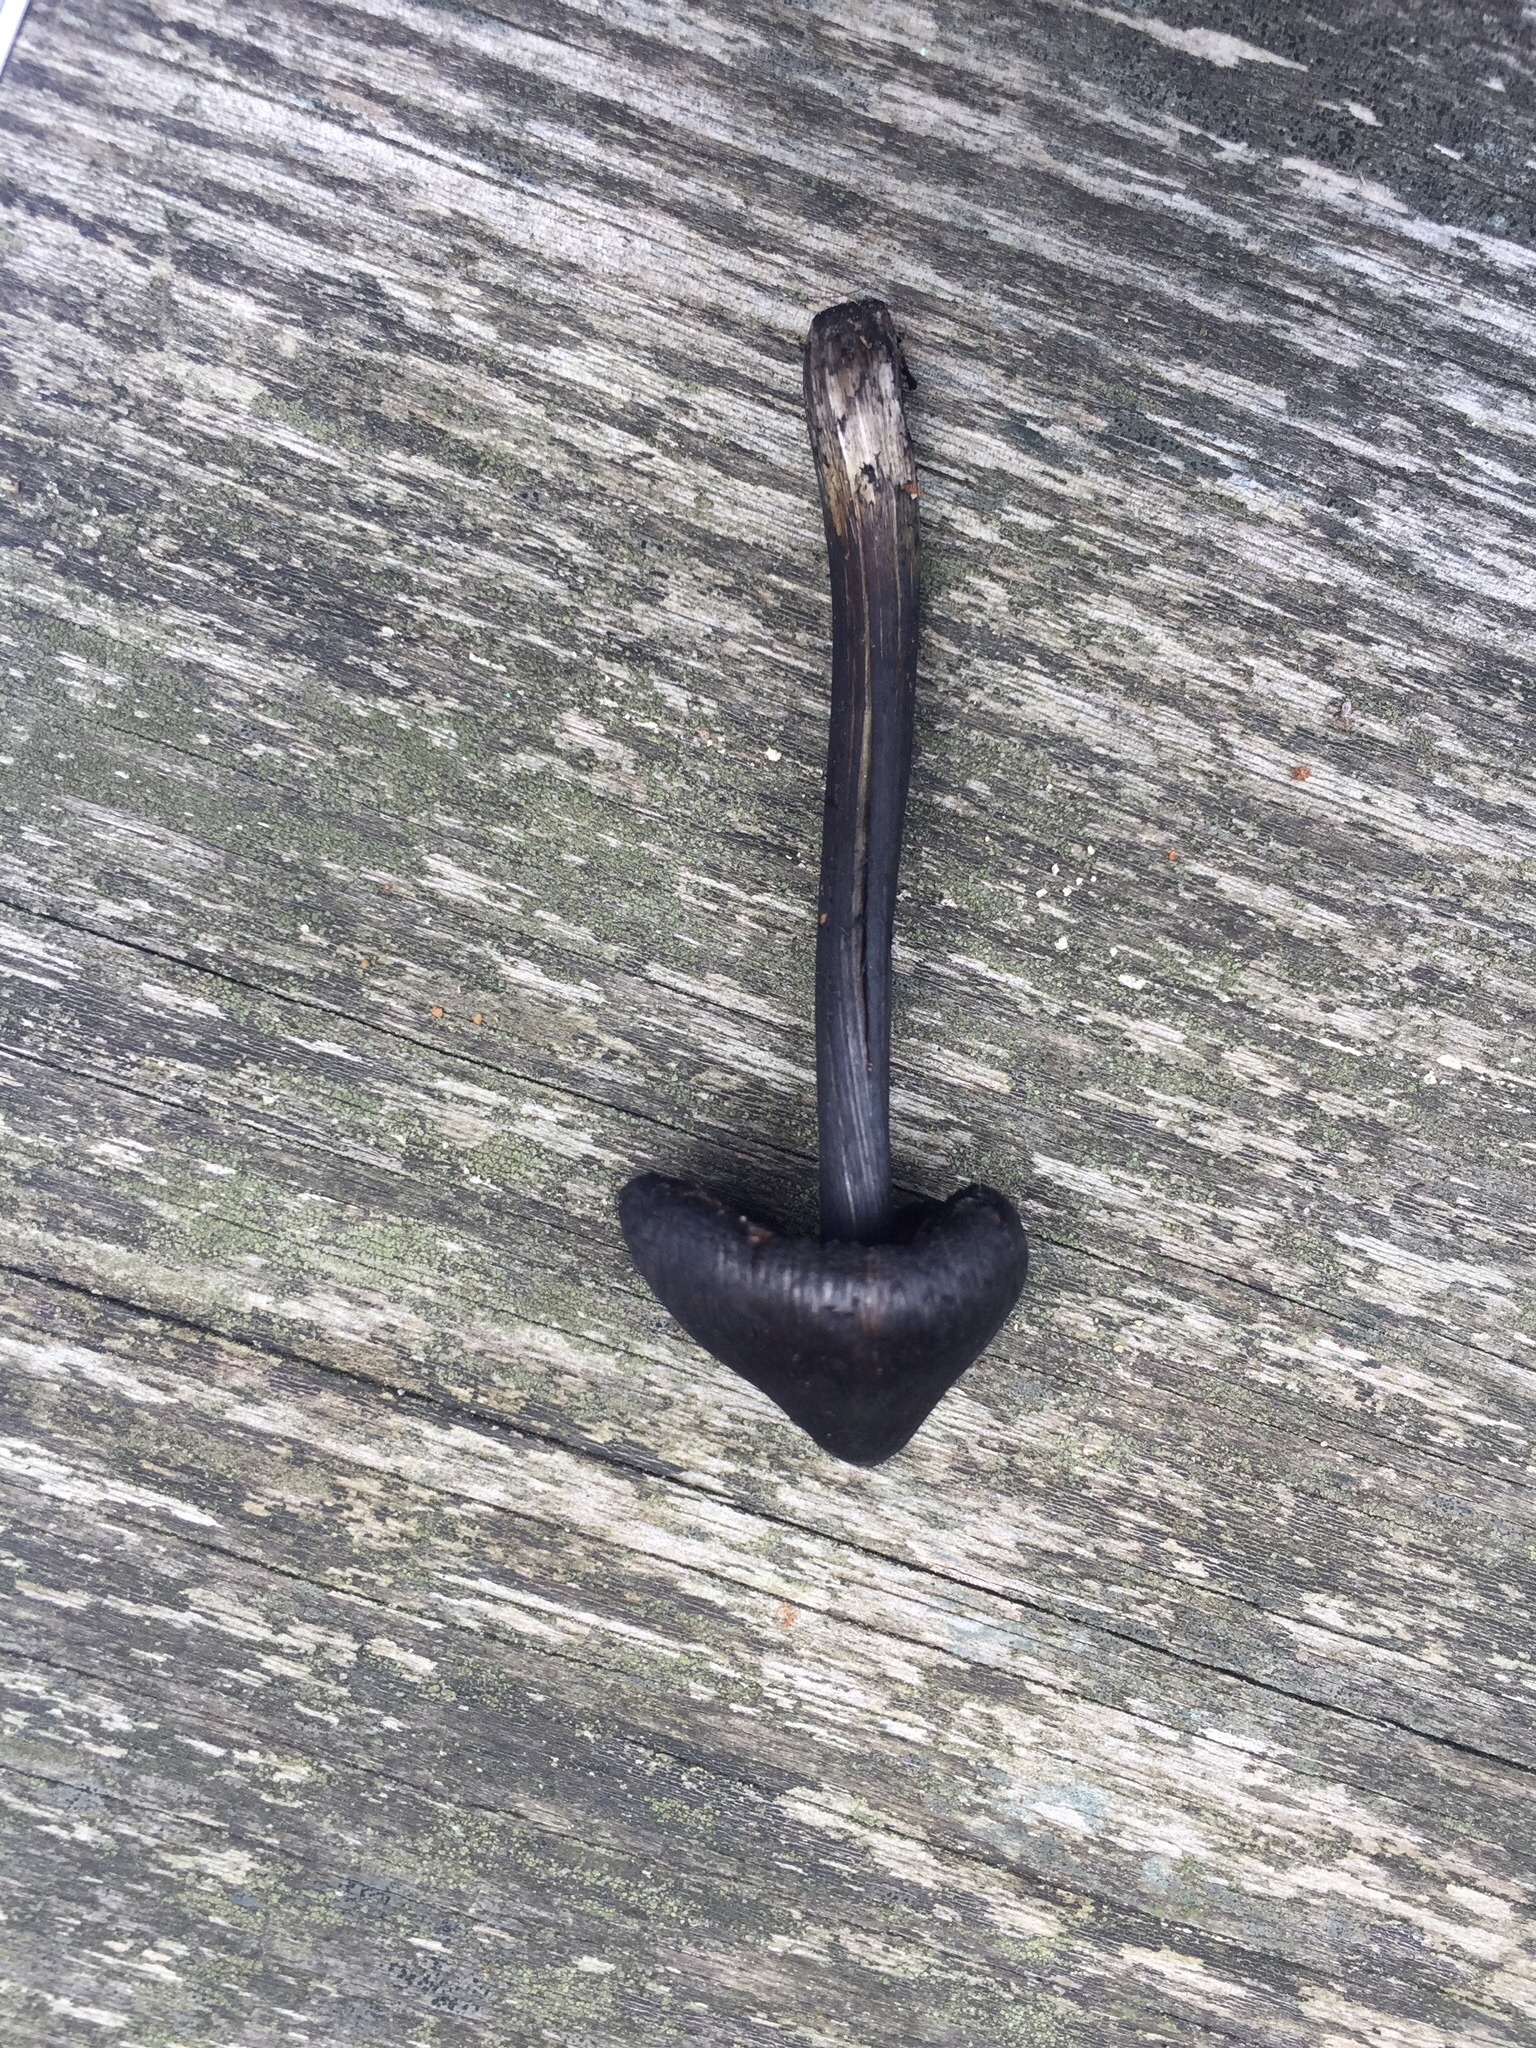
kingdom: Fungi
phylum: Basidiomycota
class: Agaricomycetes
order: Agaricales
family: Hygrophoraceae
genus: Hygrocybe
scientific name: Hygrocybe conica
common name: Blackening wax-cap
